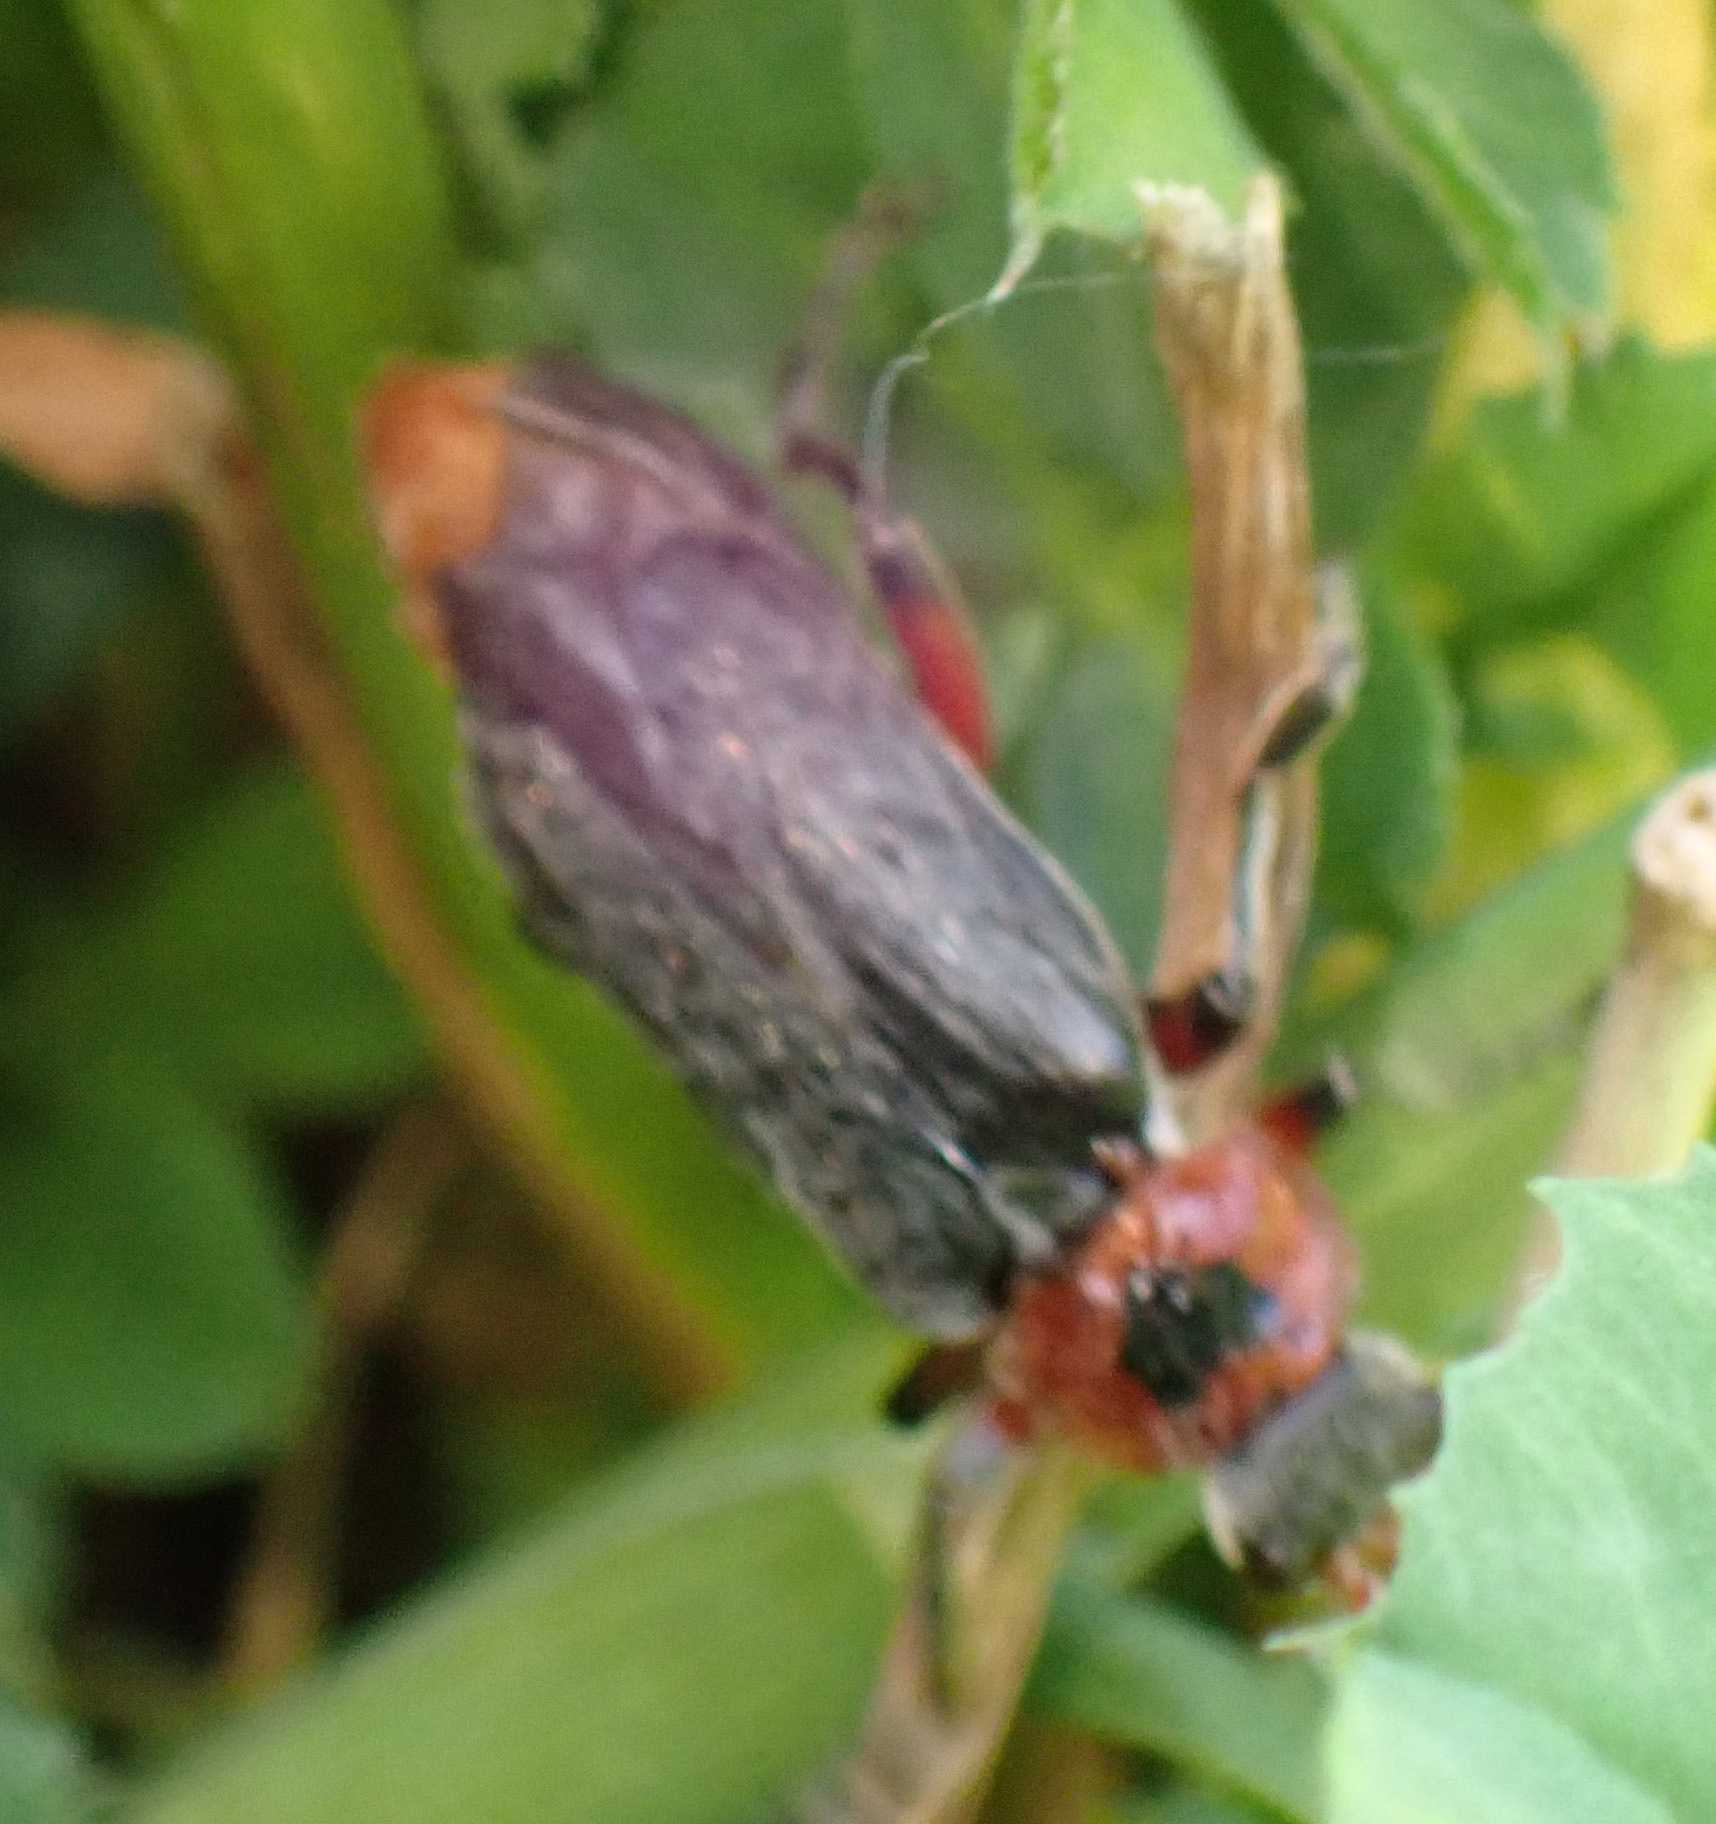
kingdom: Animalia
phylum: Arthropoda
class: Insecta
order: Coleoptera
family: Cantharidae
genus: Cantharis
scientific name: Cantharis rustica
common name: Soldier beetle
